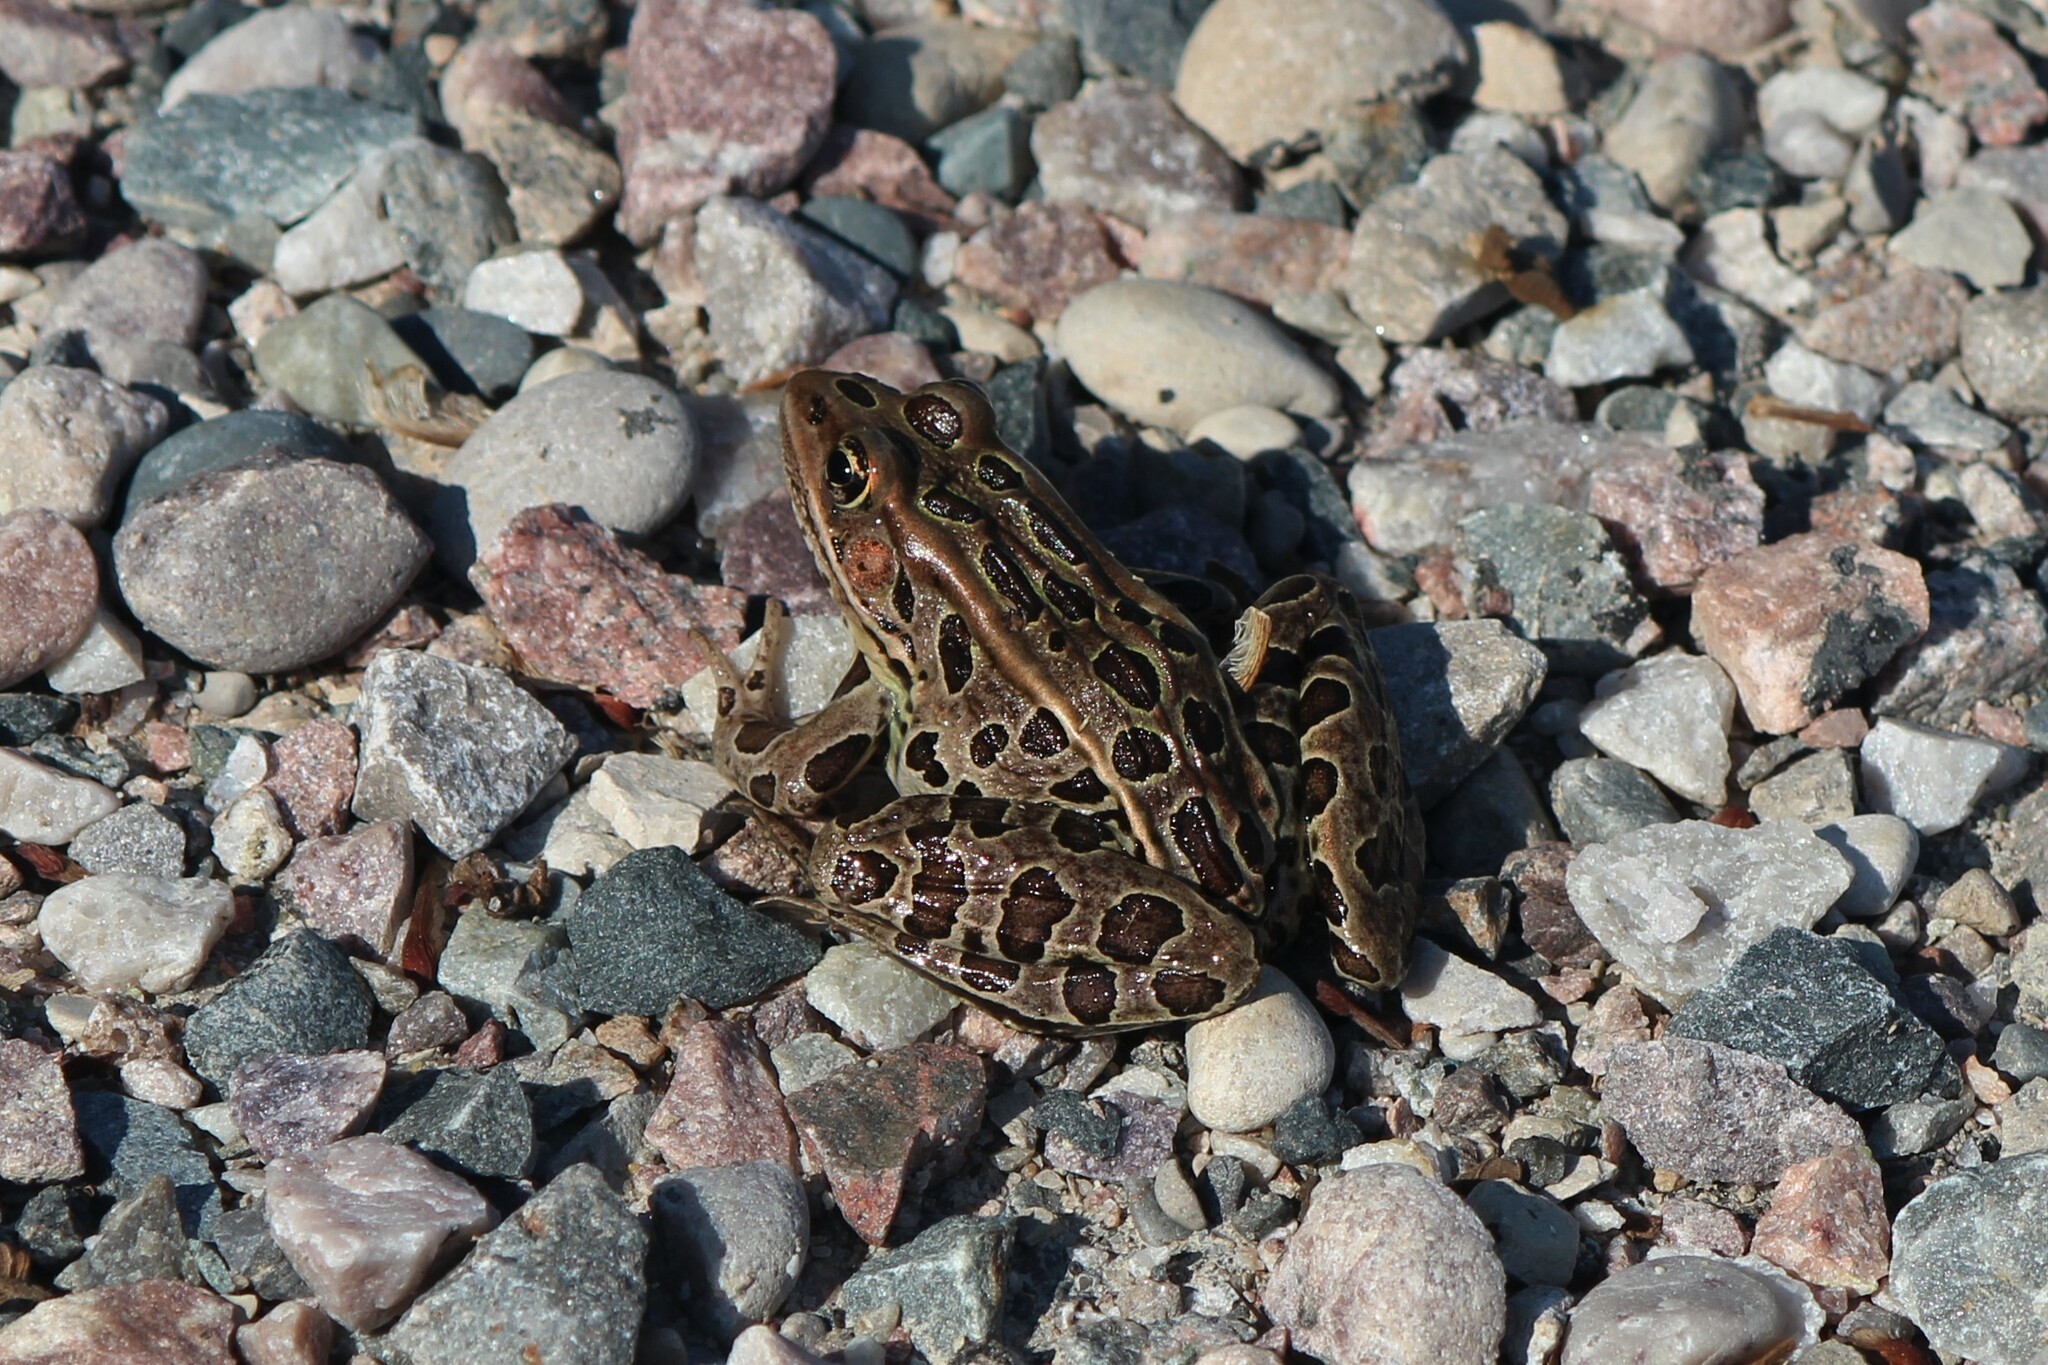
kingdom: Animalia
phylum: Chordata
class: Amphibia
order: Anura
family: Ranidae
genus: Lithobates
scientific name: Lithobates pipiens
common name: Northern leopard frog
